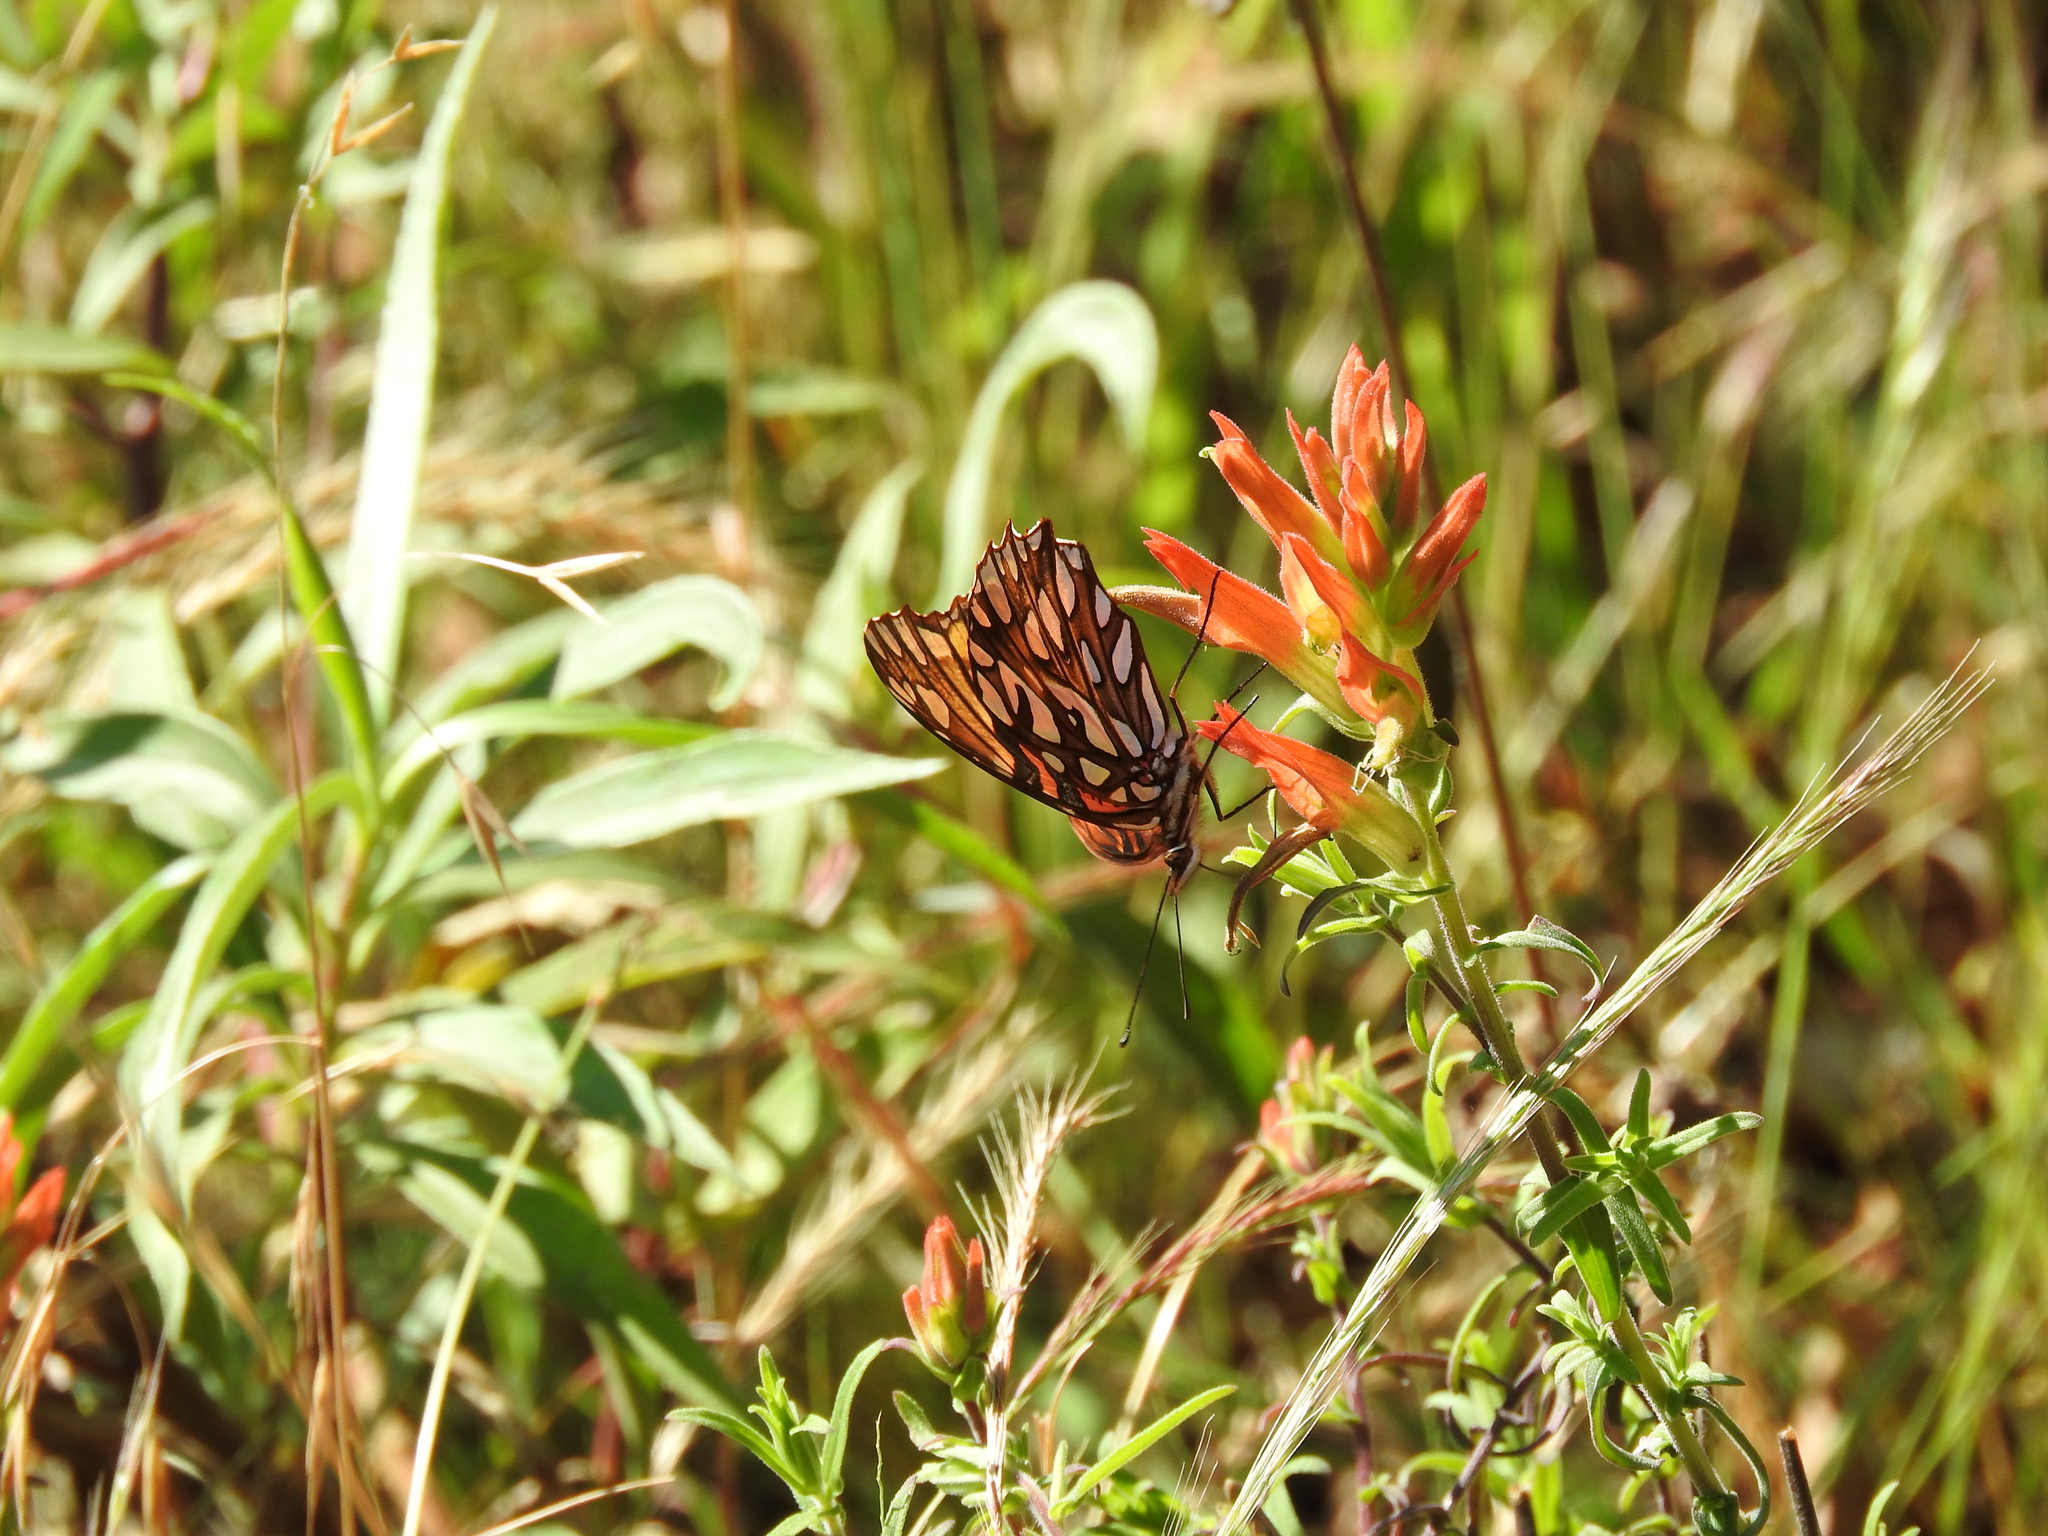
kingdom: Animalia
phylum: Arthropoda
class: Insecta
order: Lepidoptera
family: Nymphalidae
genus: Dione
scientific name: Dione moneta
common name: Mexican silverspot
